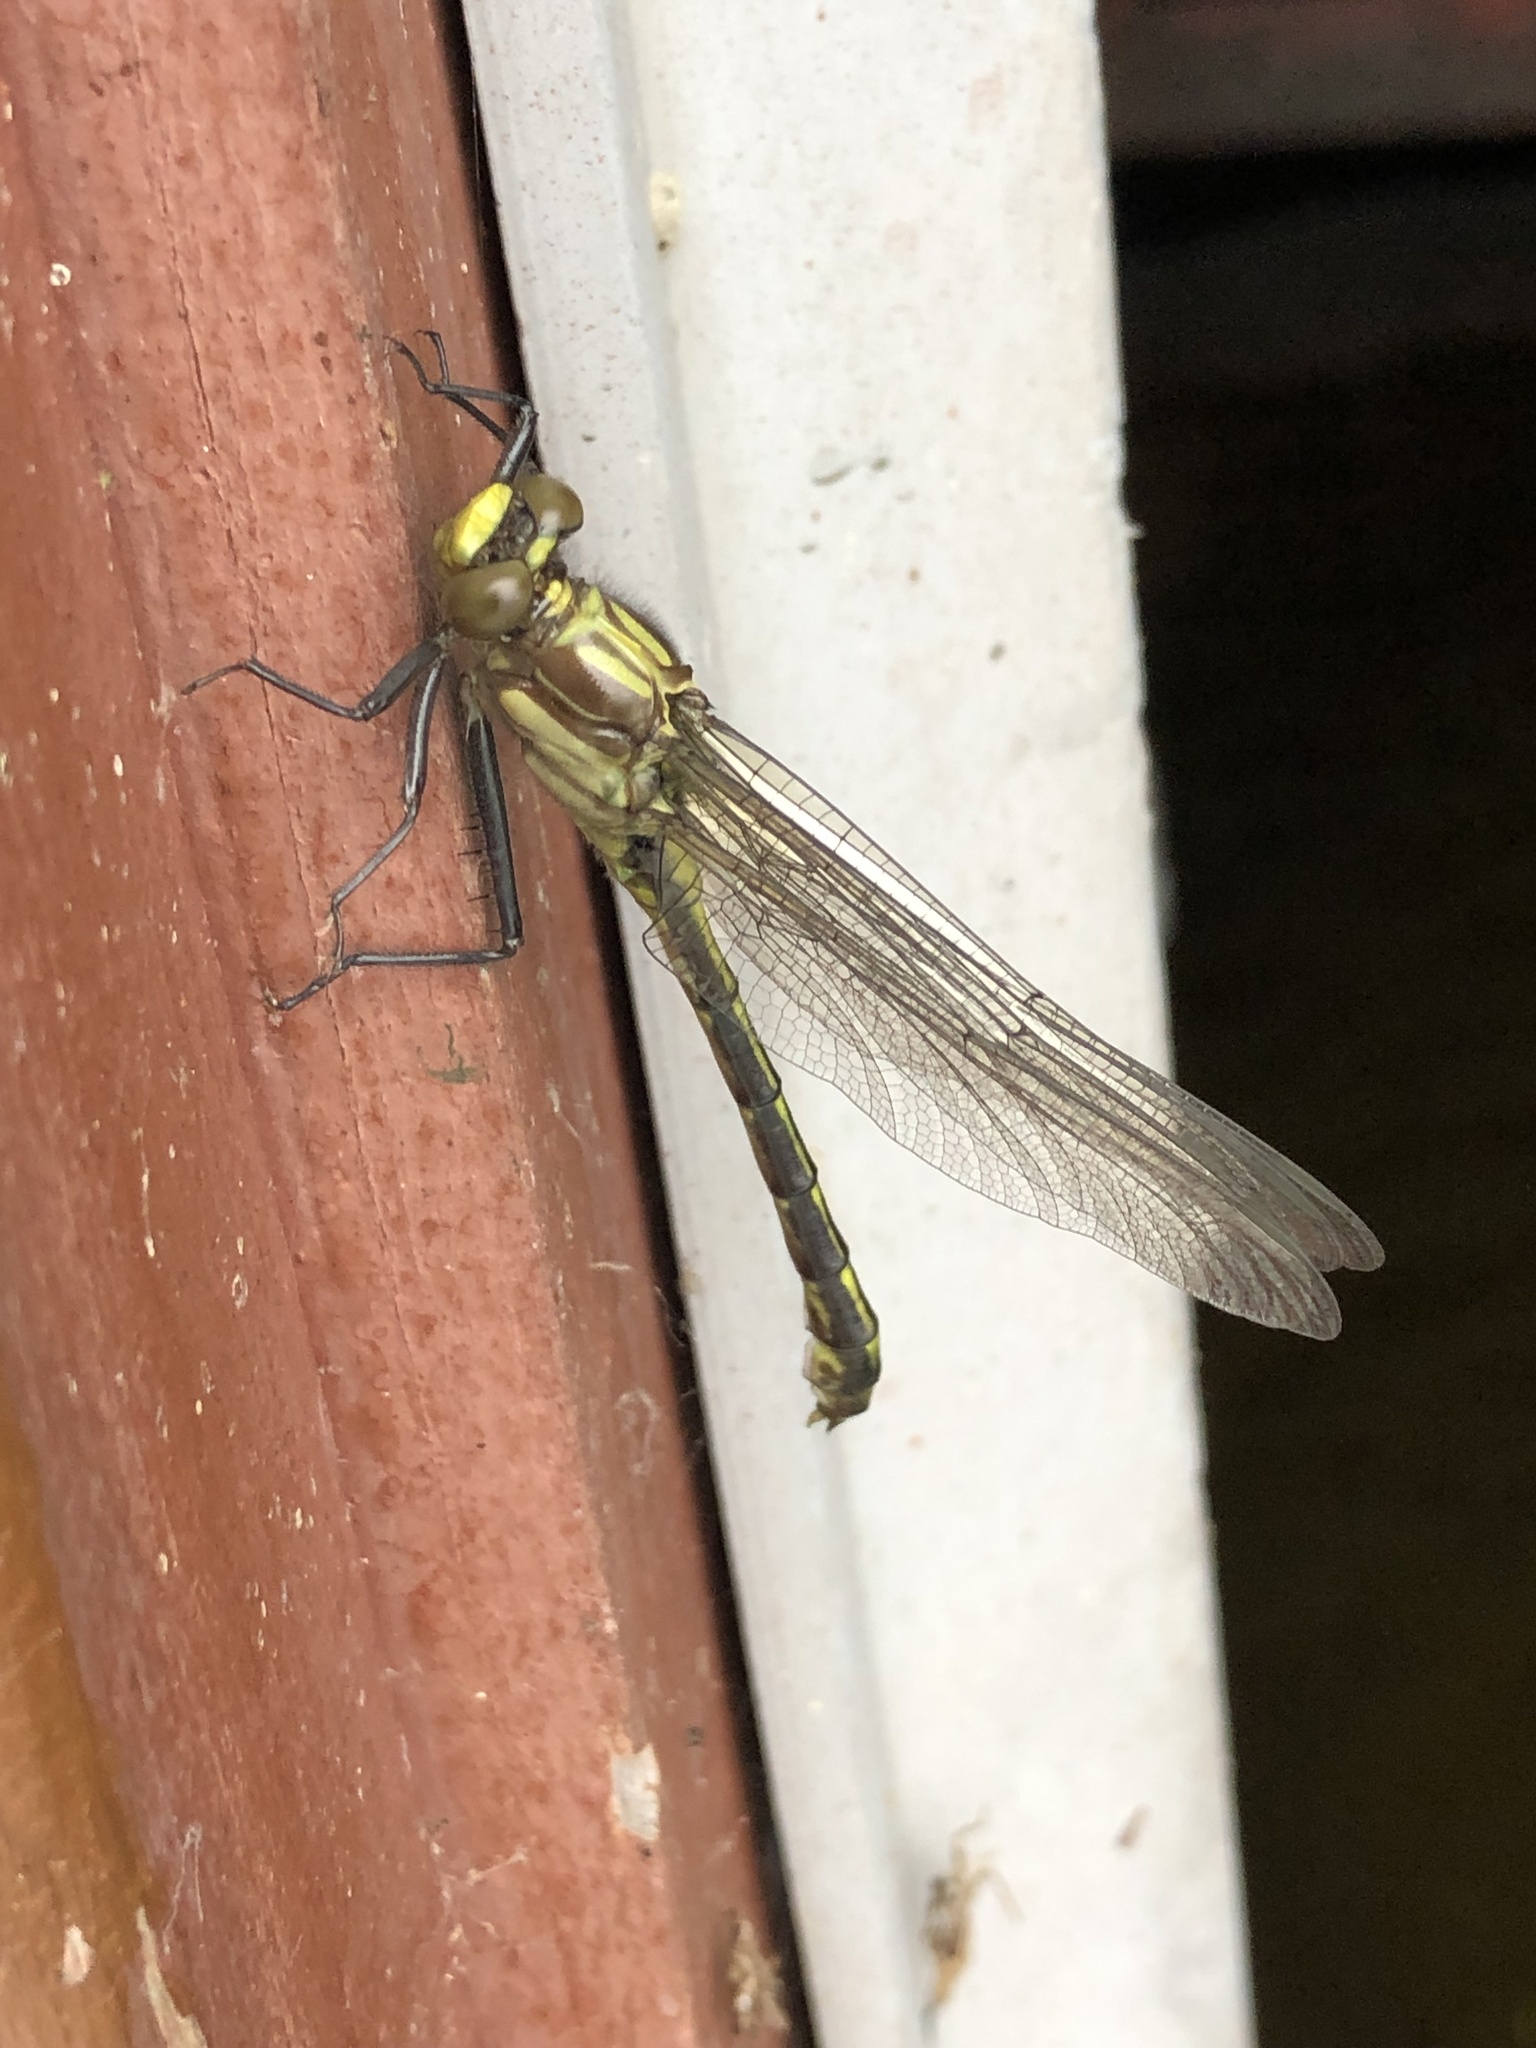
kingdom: Animalia
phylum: Arthropoda
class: Insecta
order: Odonata
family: Gomphidae
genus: Dromogomphus
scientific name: Dromogomphus spinosus
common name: Black-shouldered spinyleg
